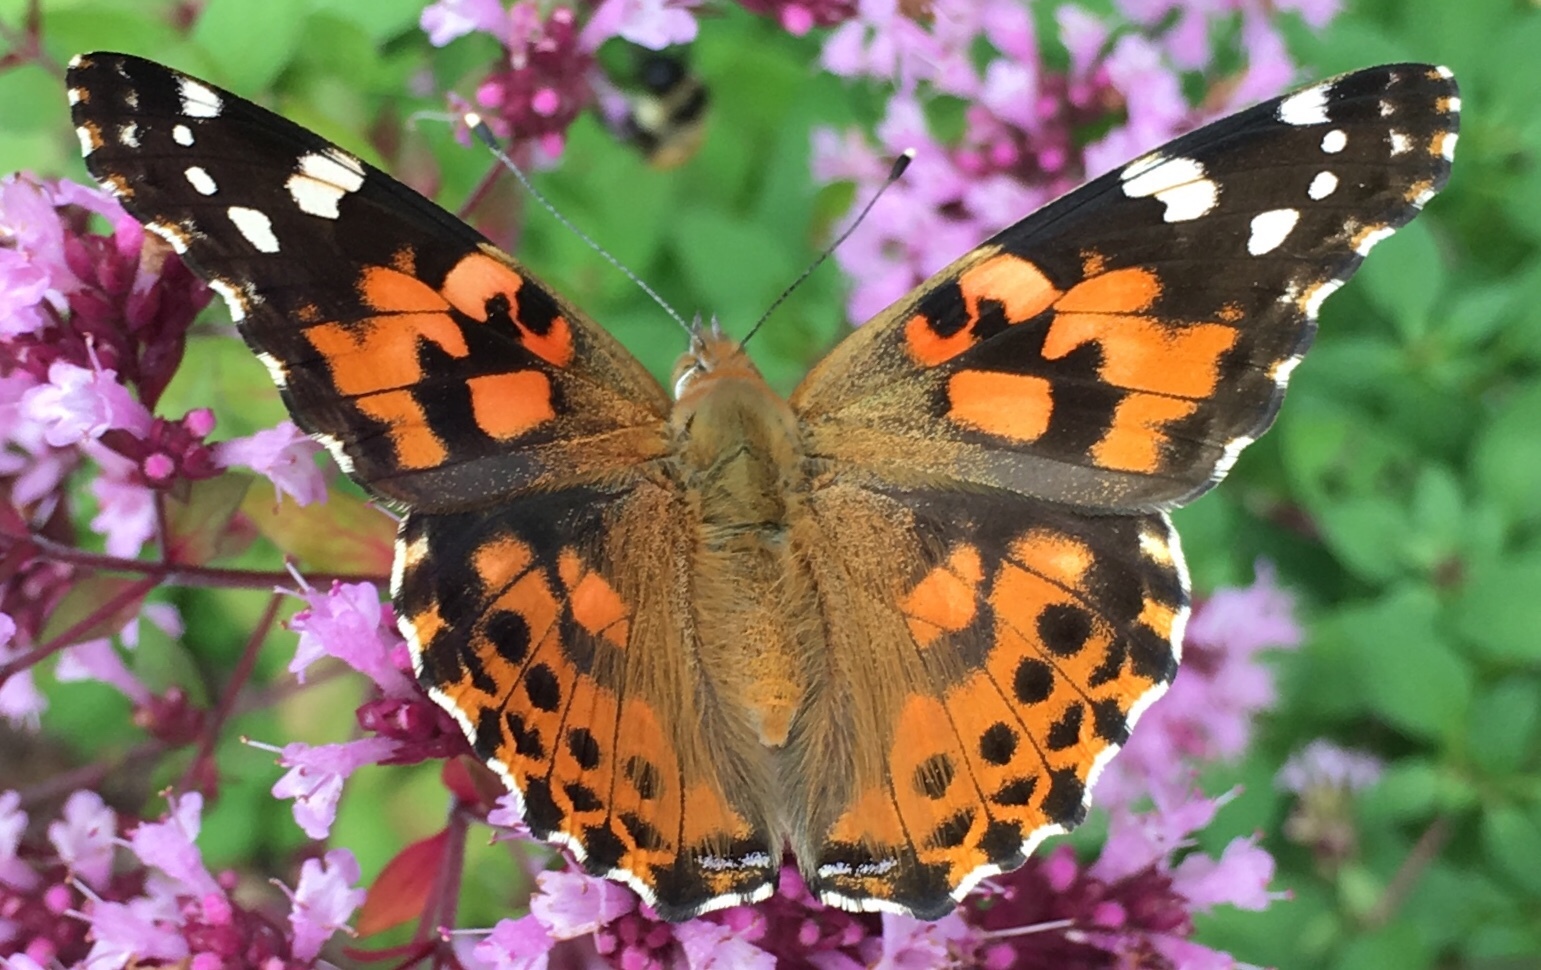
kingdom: Animalia
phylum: Arthropoda
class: Insecta
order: Lepidoptera
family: Nymphalidae
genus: Vanessa
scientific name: Vanessa cardui
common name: Painted lady
